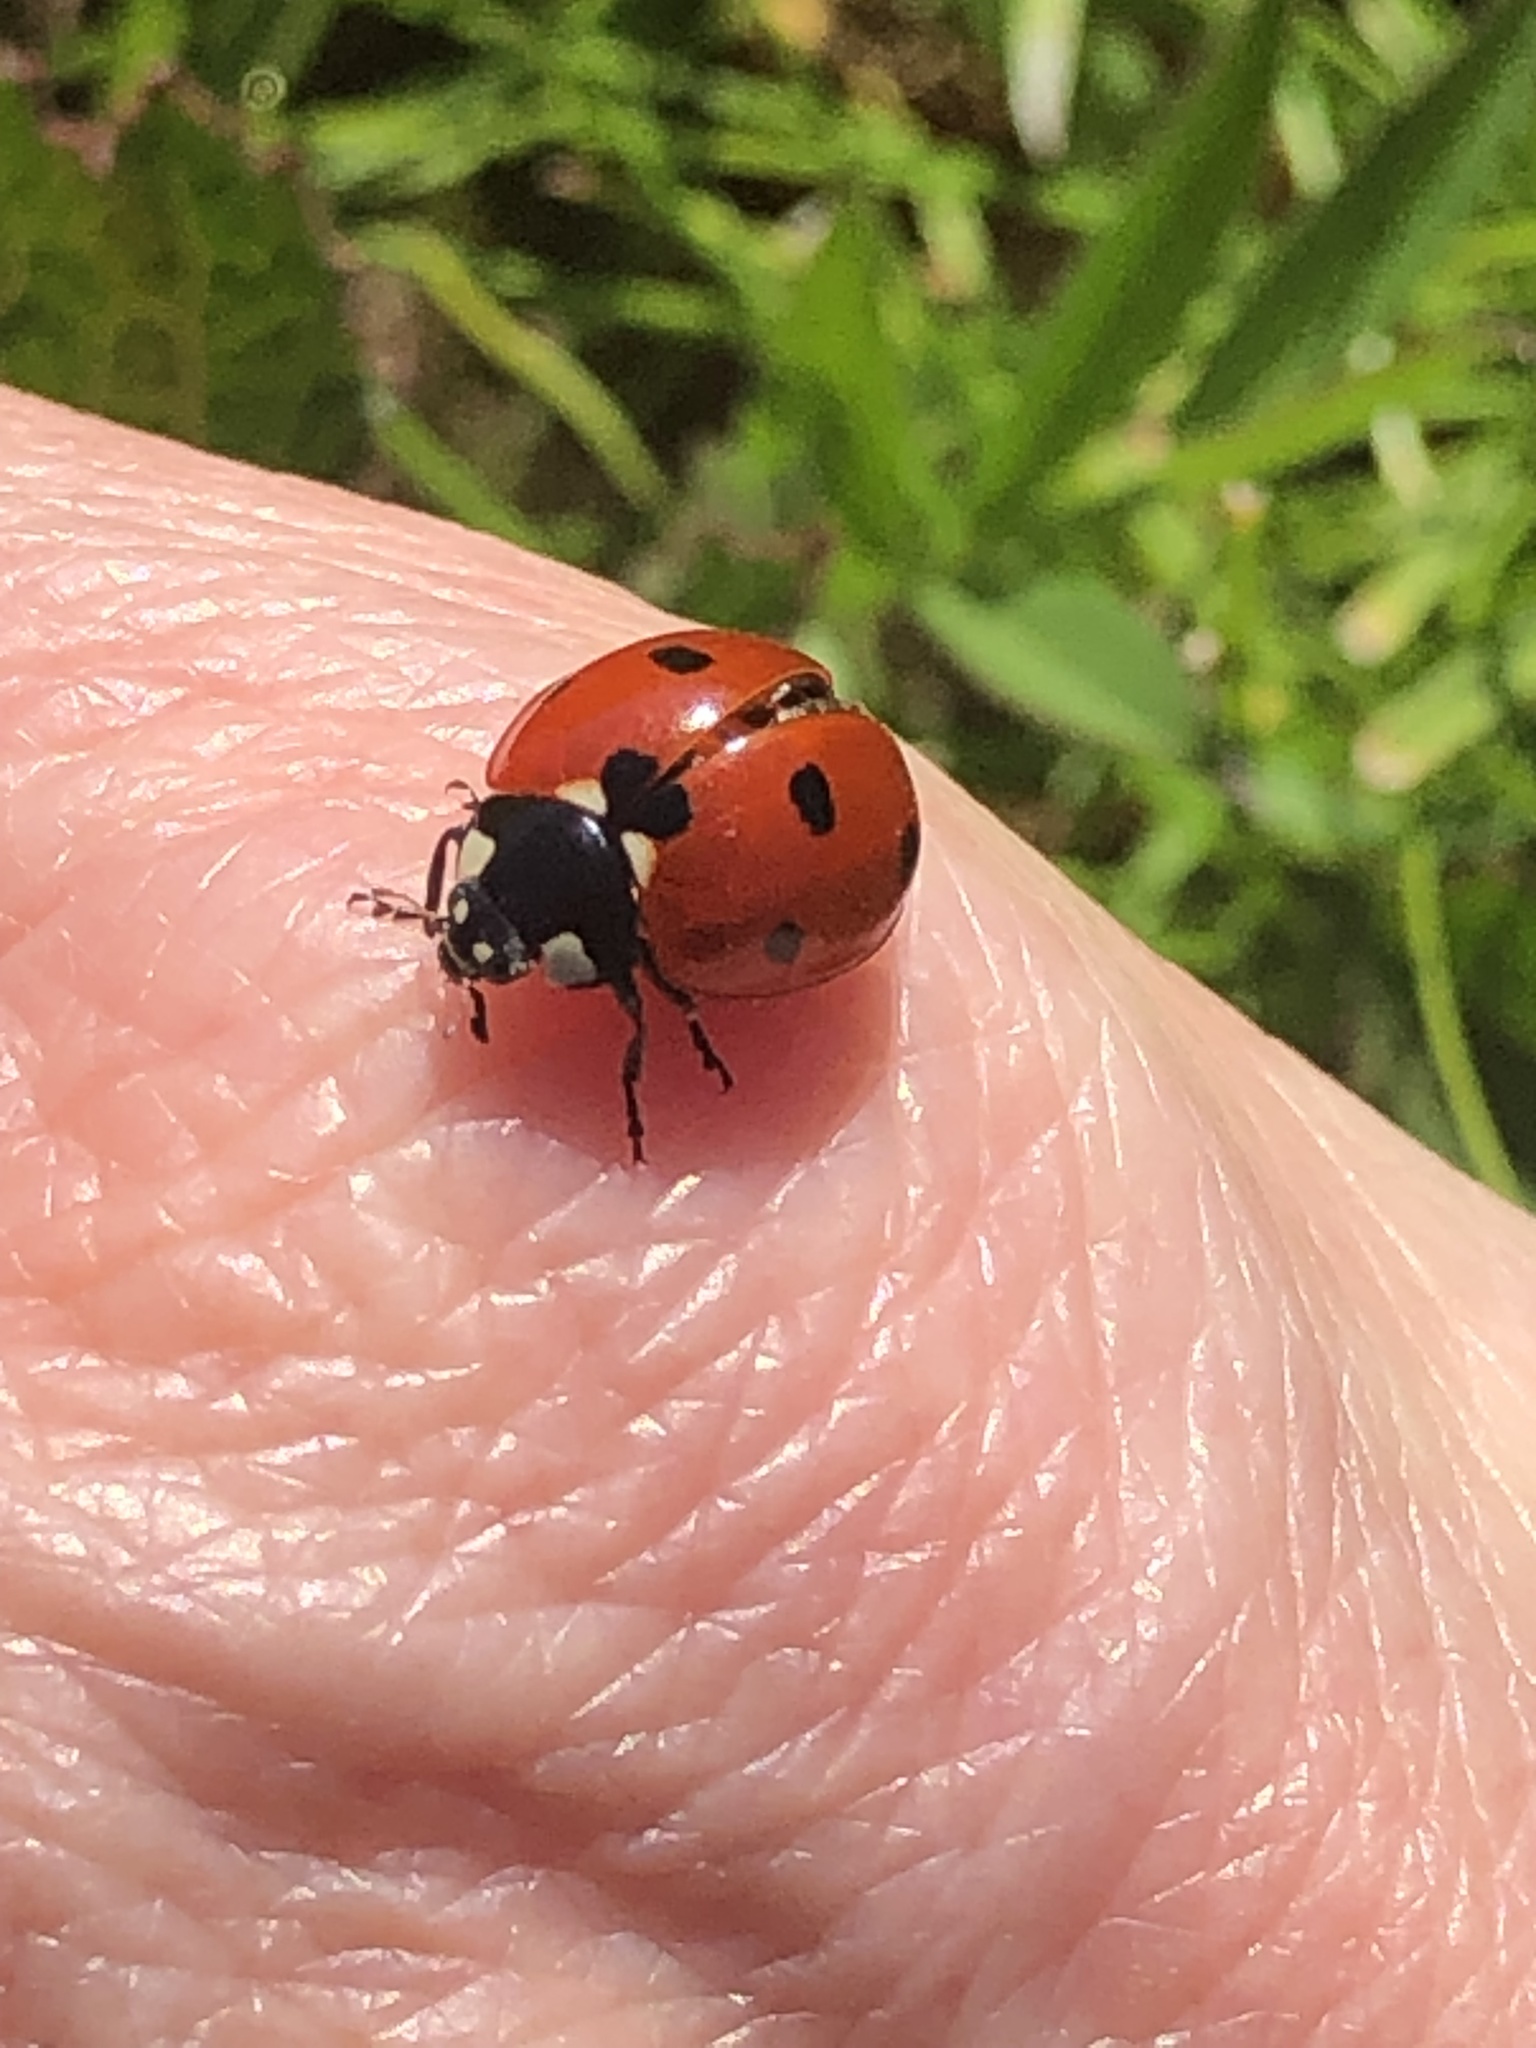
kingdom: Animalia
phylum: Arthropoda
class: Insecta
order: Coleoptera
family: Coccinellidae
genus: Coccinella
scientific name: Coccinella septempunctata
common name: Sevenspotted lady beetle
